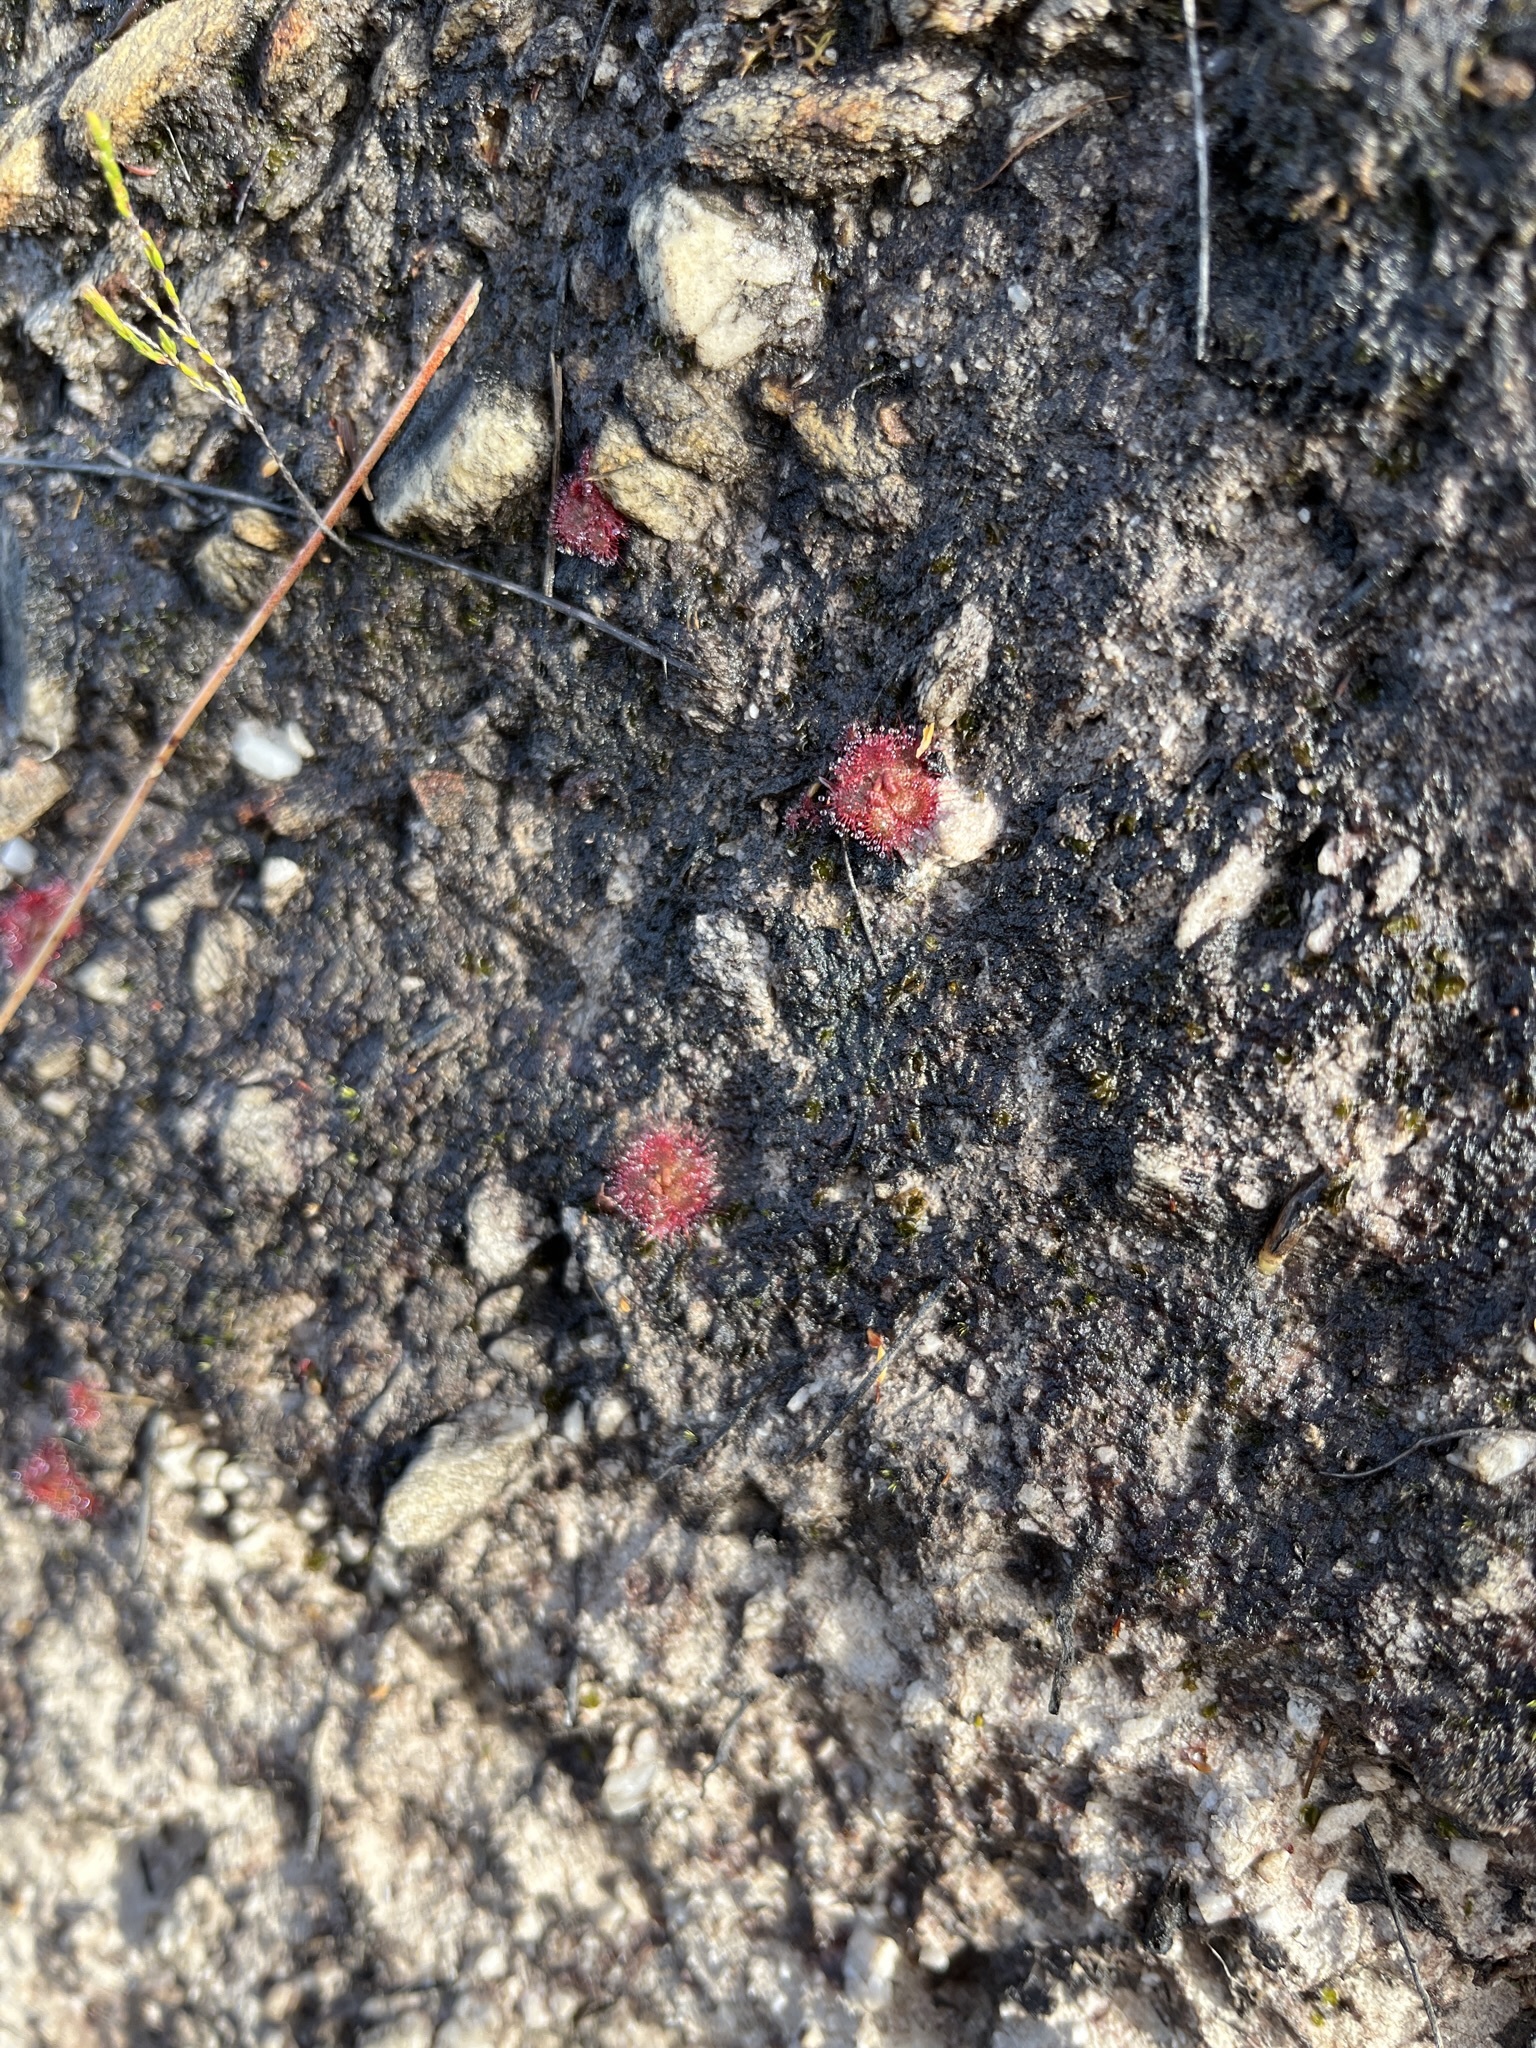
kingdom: Plantae
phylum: Tracheophyta
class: Magnoliopsida
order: Caryophyllales
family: Droseraceae
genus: Drosera
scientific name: Drosera trinervia
